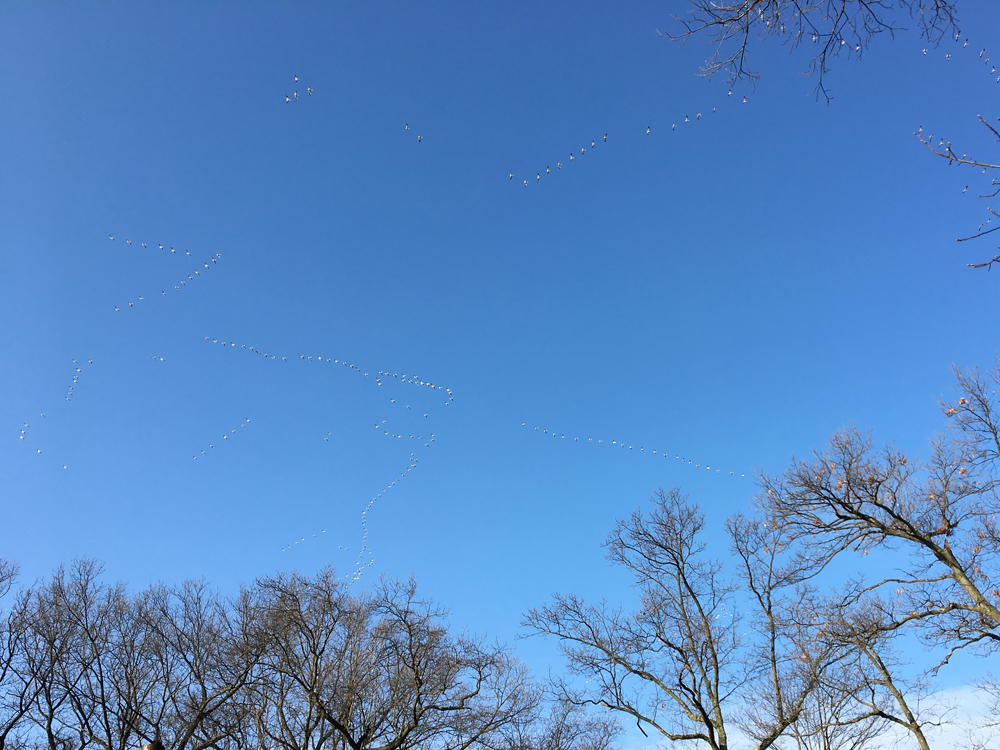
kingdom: Animalia
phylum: Chordata
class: Aves
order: Anseriformes
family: Anatidae
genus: Anser
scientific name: Anser caerulescens
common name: Snow goose
